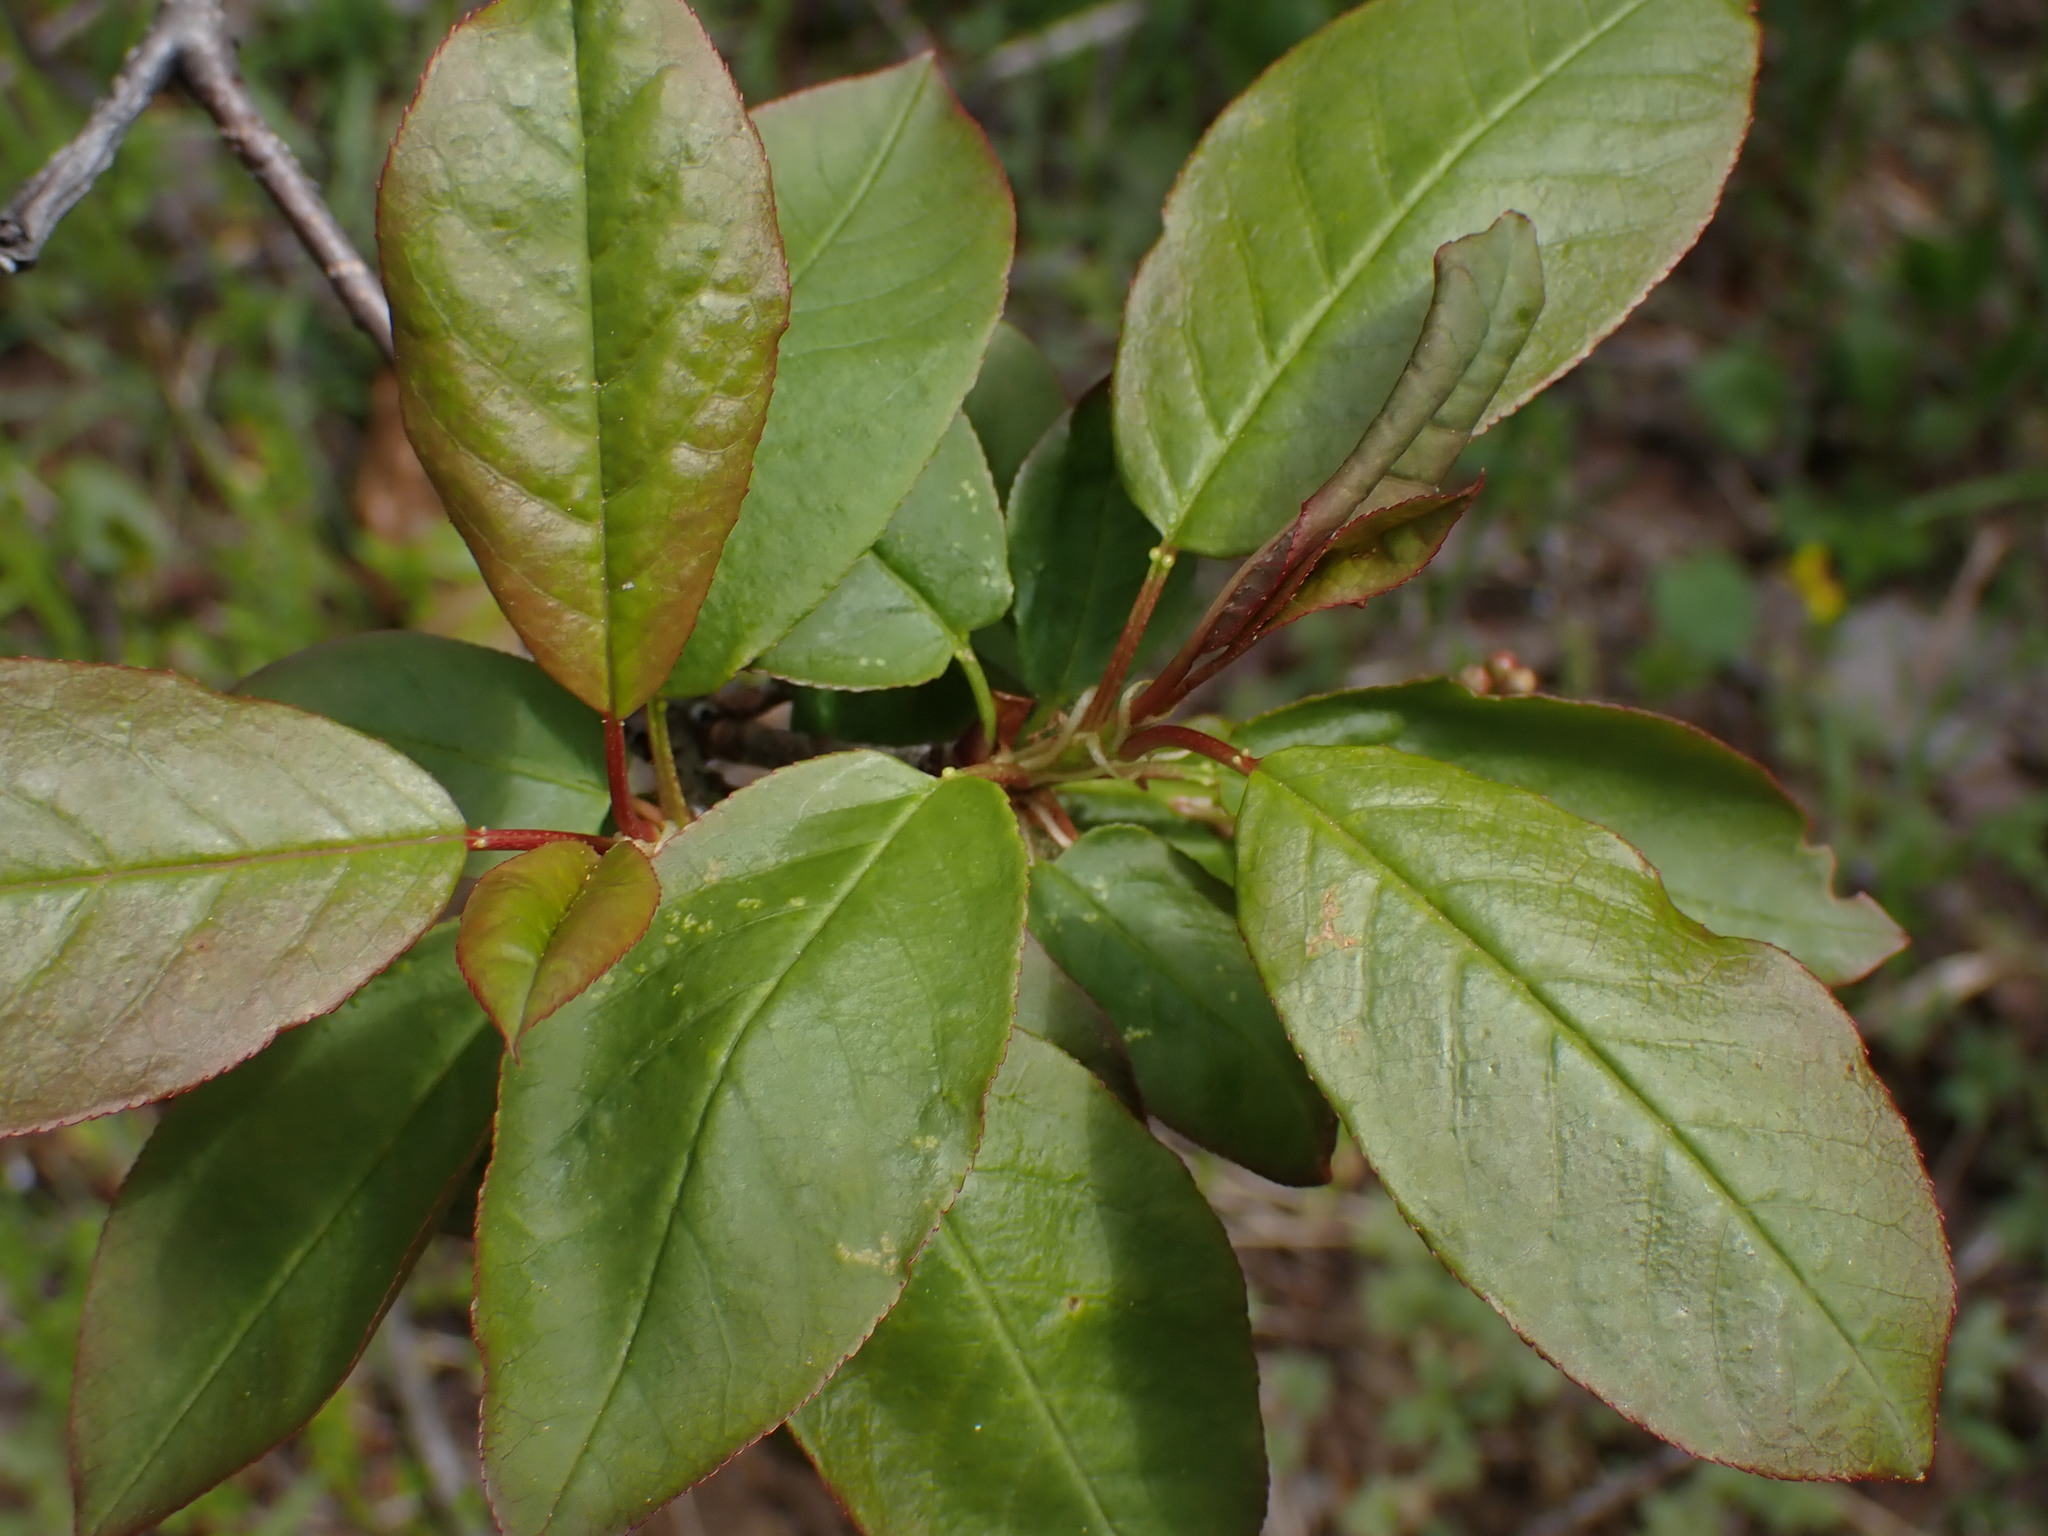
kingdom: Plantae
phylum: Tracheophyta
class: Magnoliopsida
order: Rosales
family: Rosaceae
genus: Prunus
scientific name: Prunus virginiana
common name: Chokecherry
